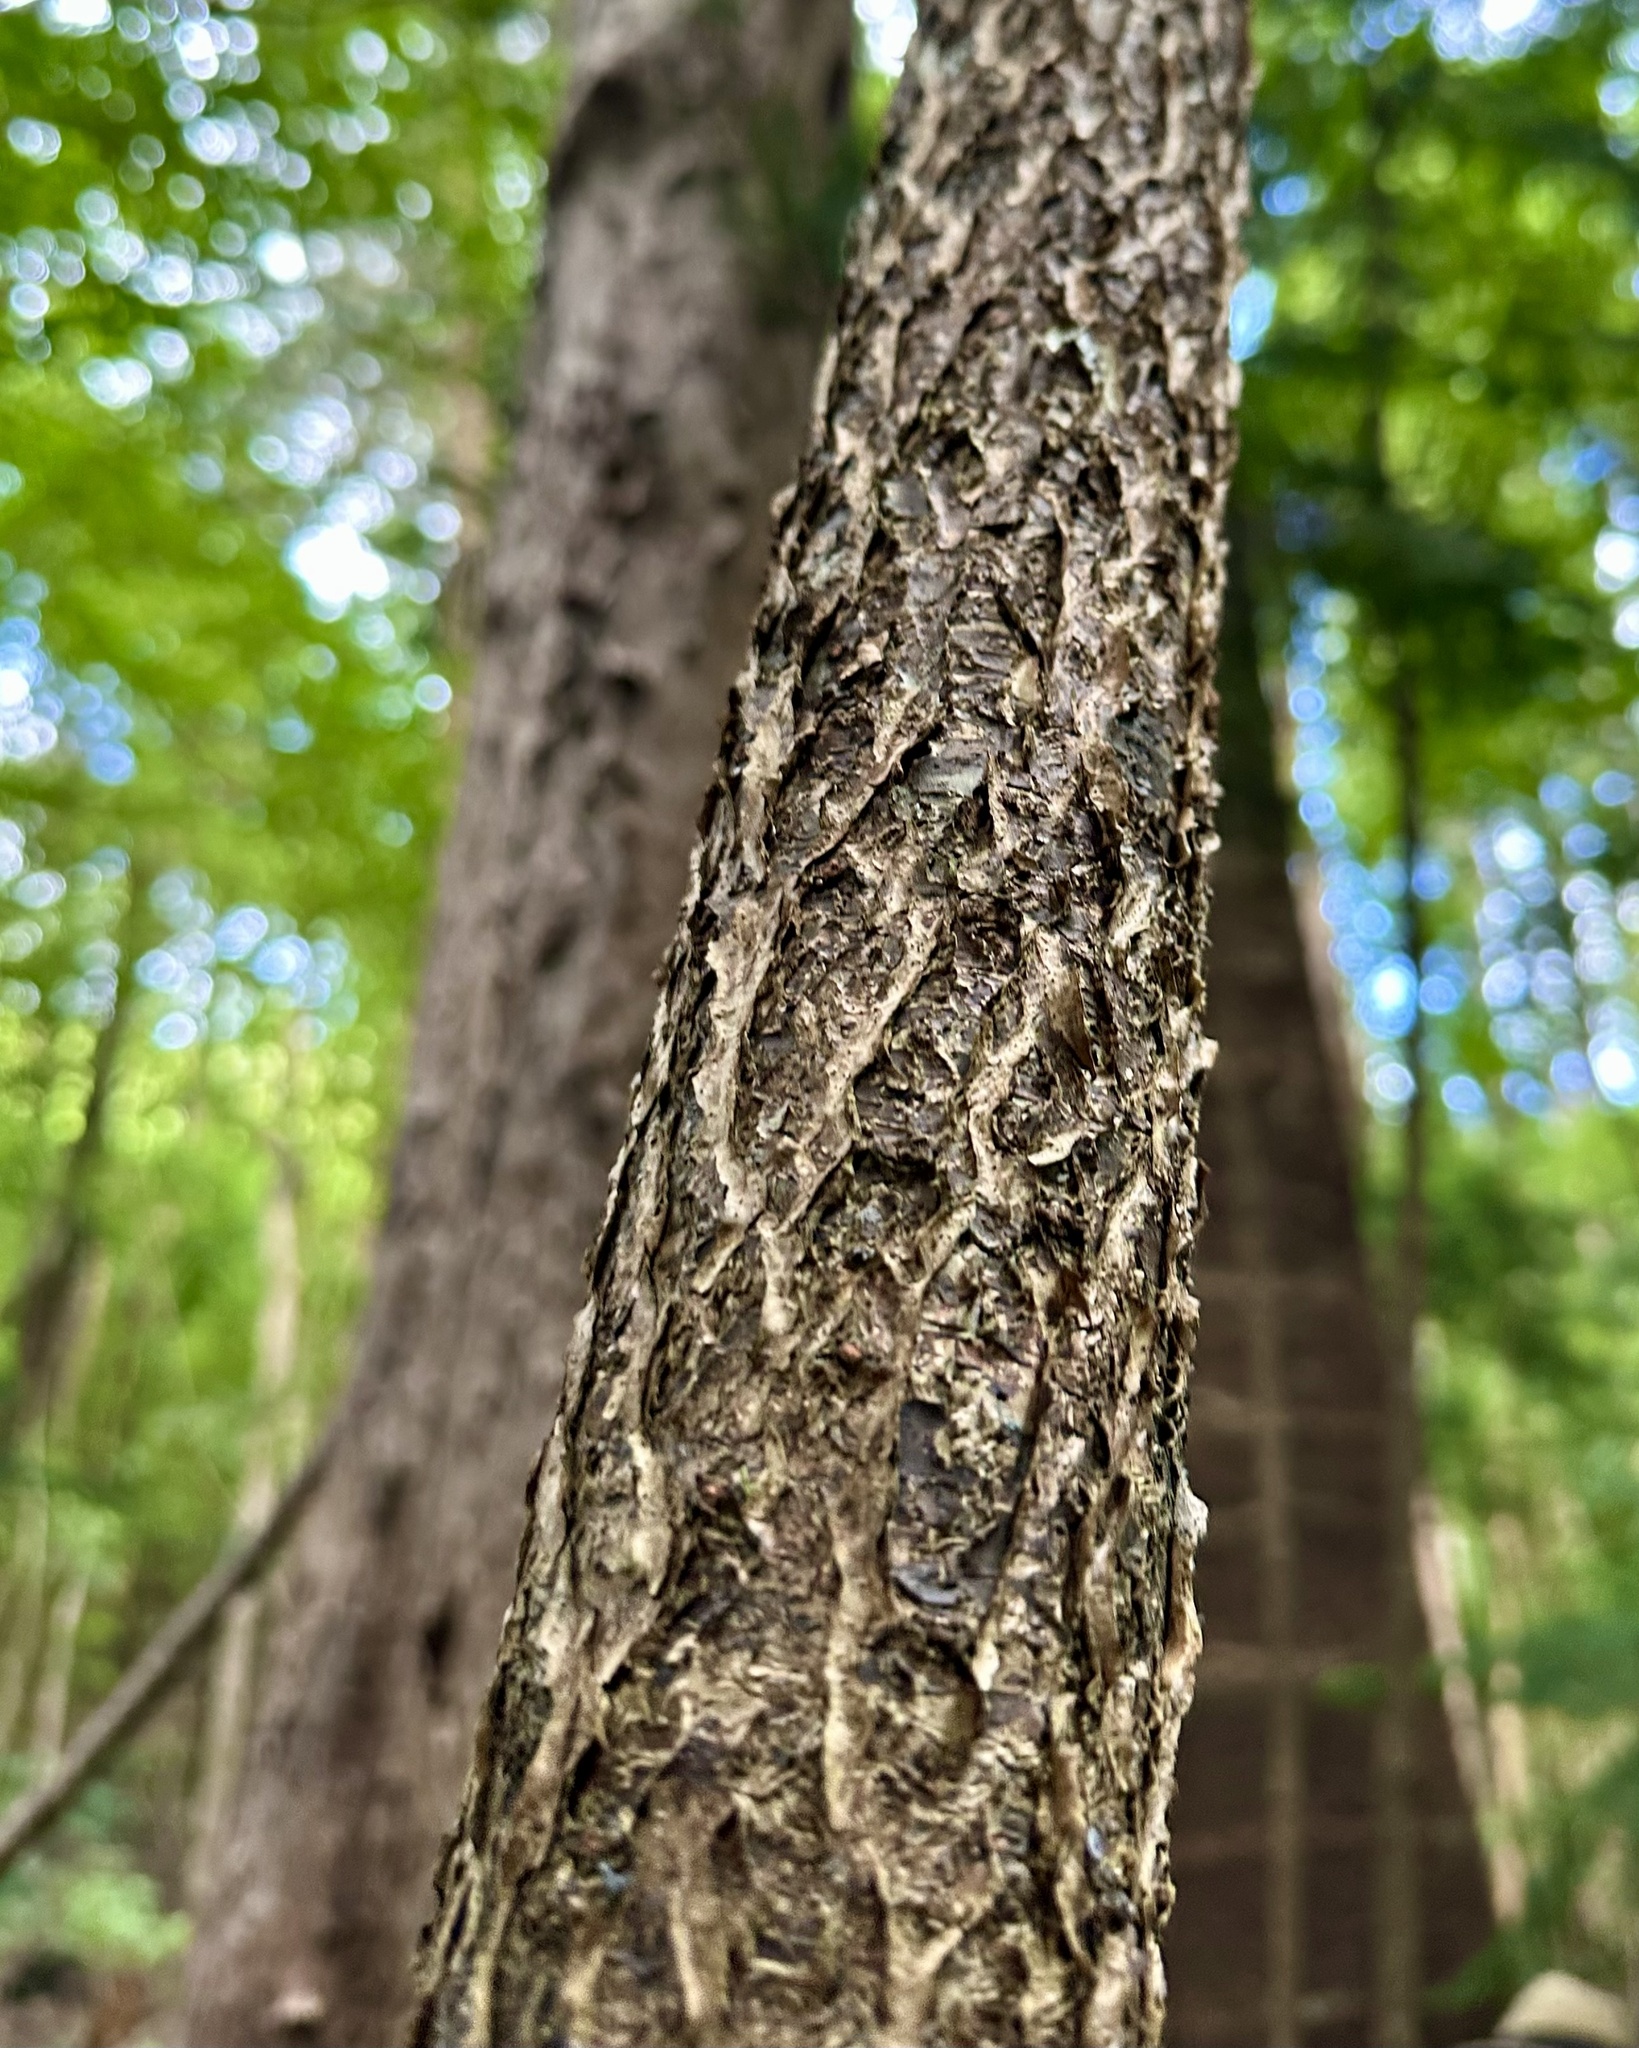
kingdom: Plantae
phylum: Tracheophyta
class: Pinopsida
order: Pinales
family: Araucariaceae
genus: Araucaria
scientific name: Araucaria columnaris
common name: Coral reef araucaria
